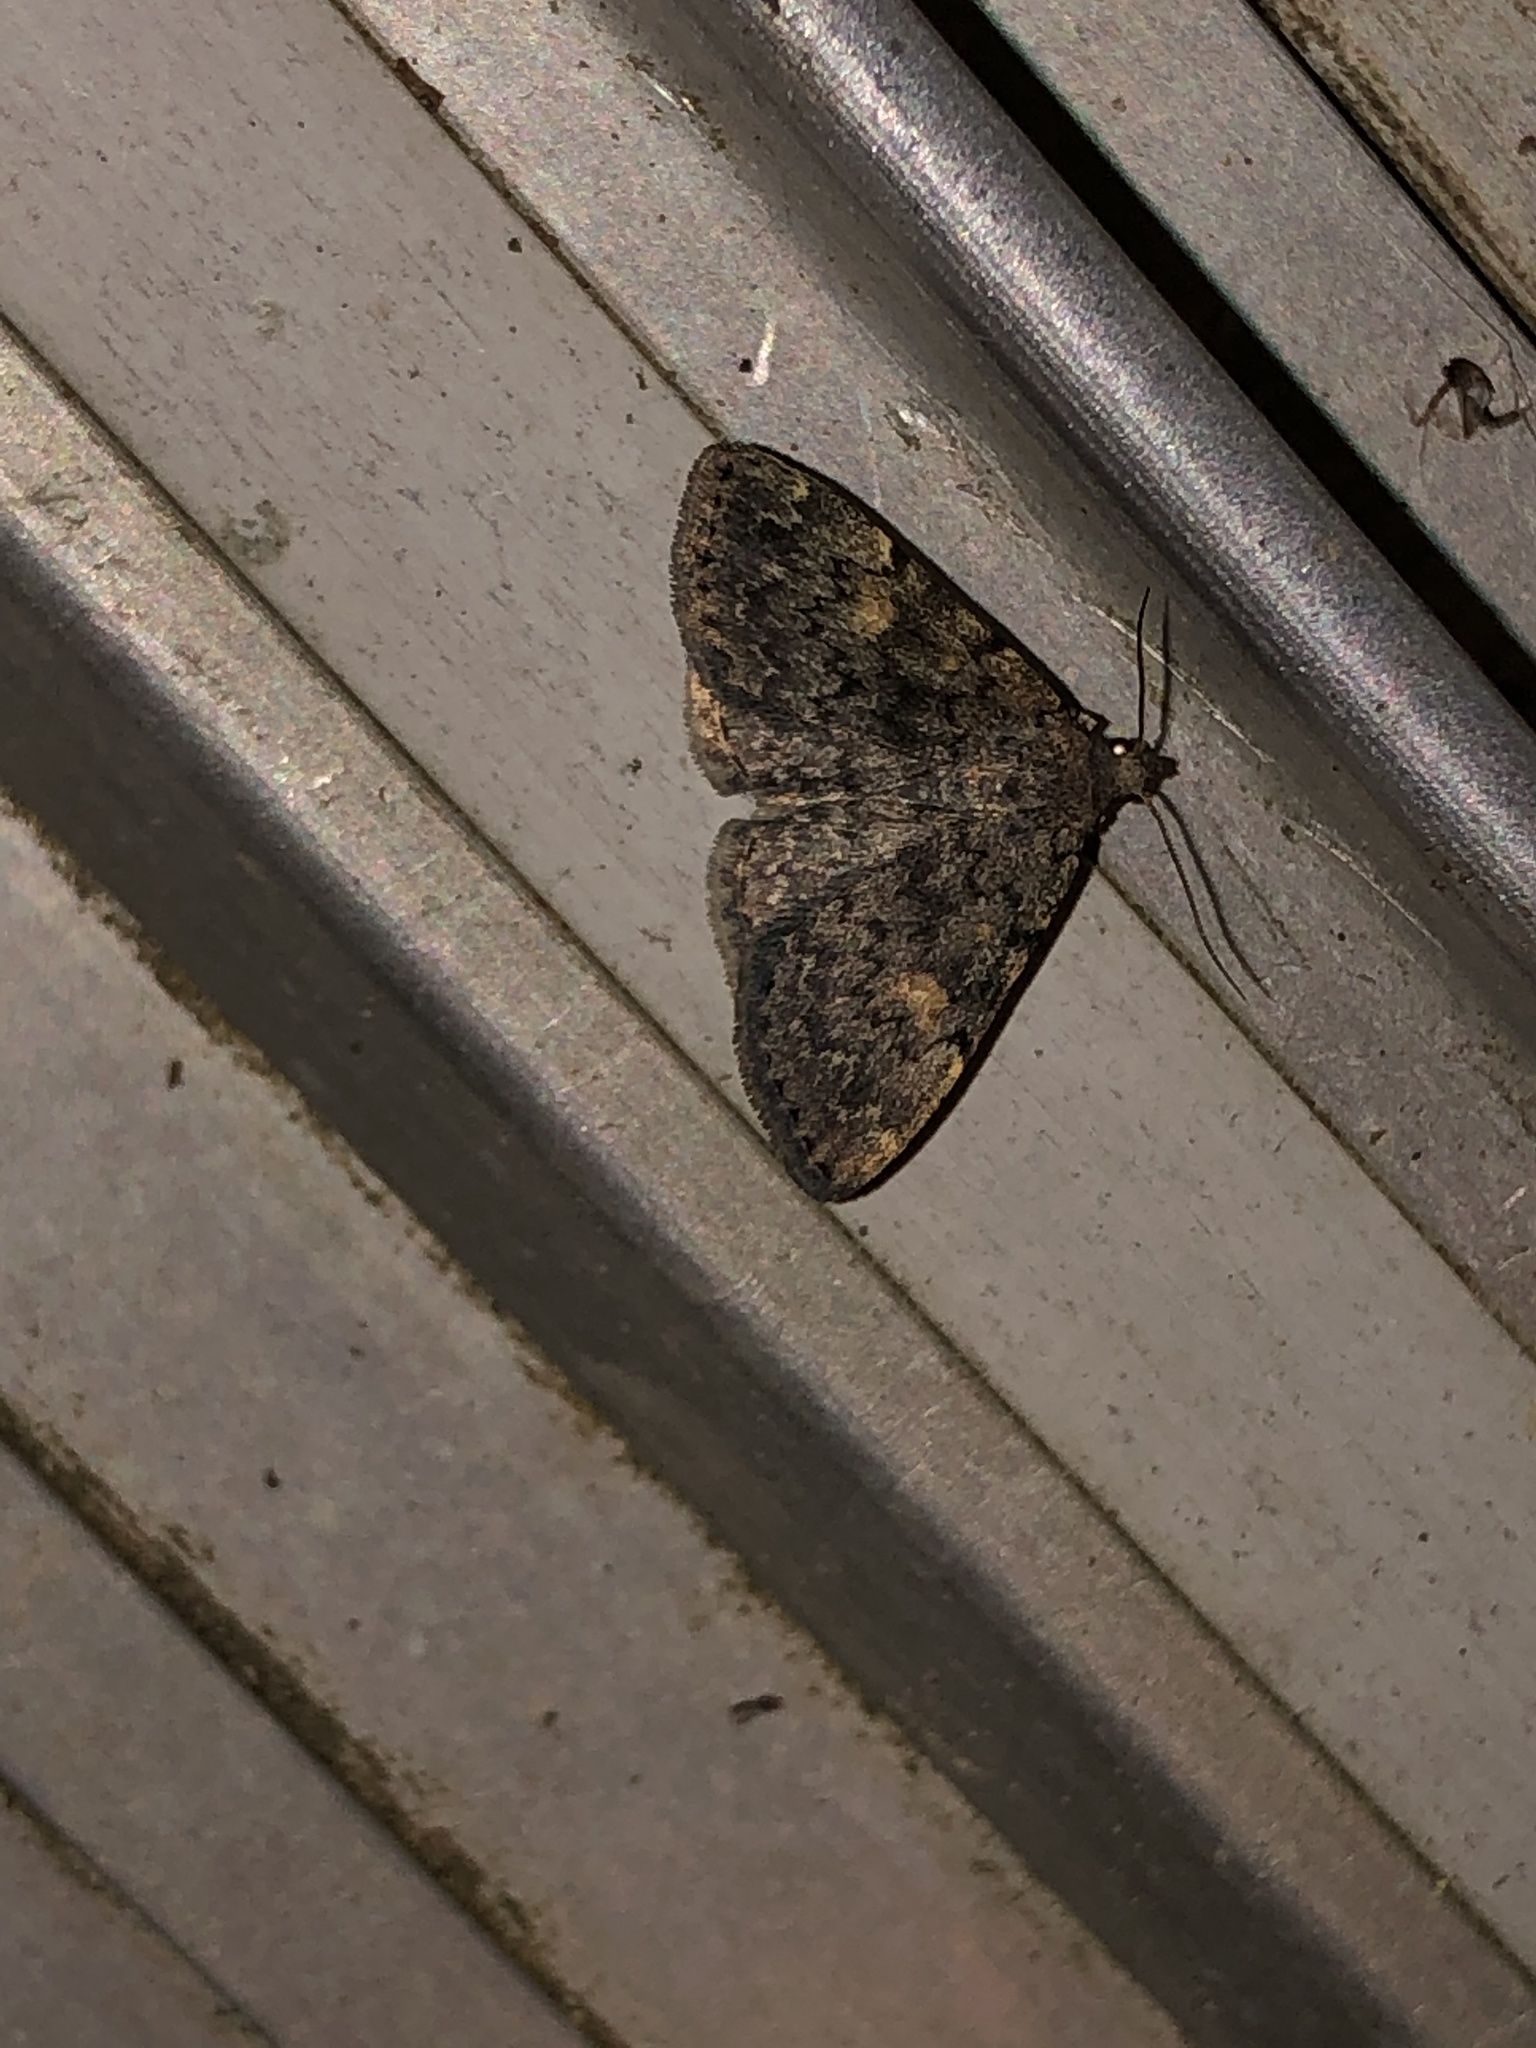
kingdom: Animalia
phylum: Arthropoda
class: Insecta
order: Lepidoptera
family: Erebidae
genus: Idia
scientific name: Idia aemula
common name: Common idia moth
